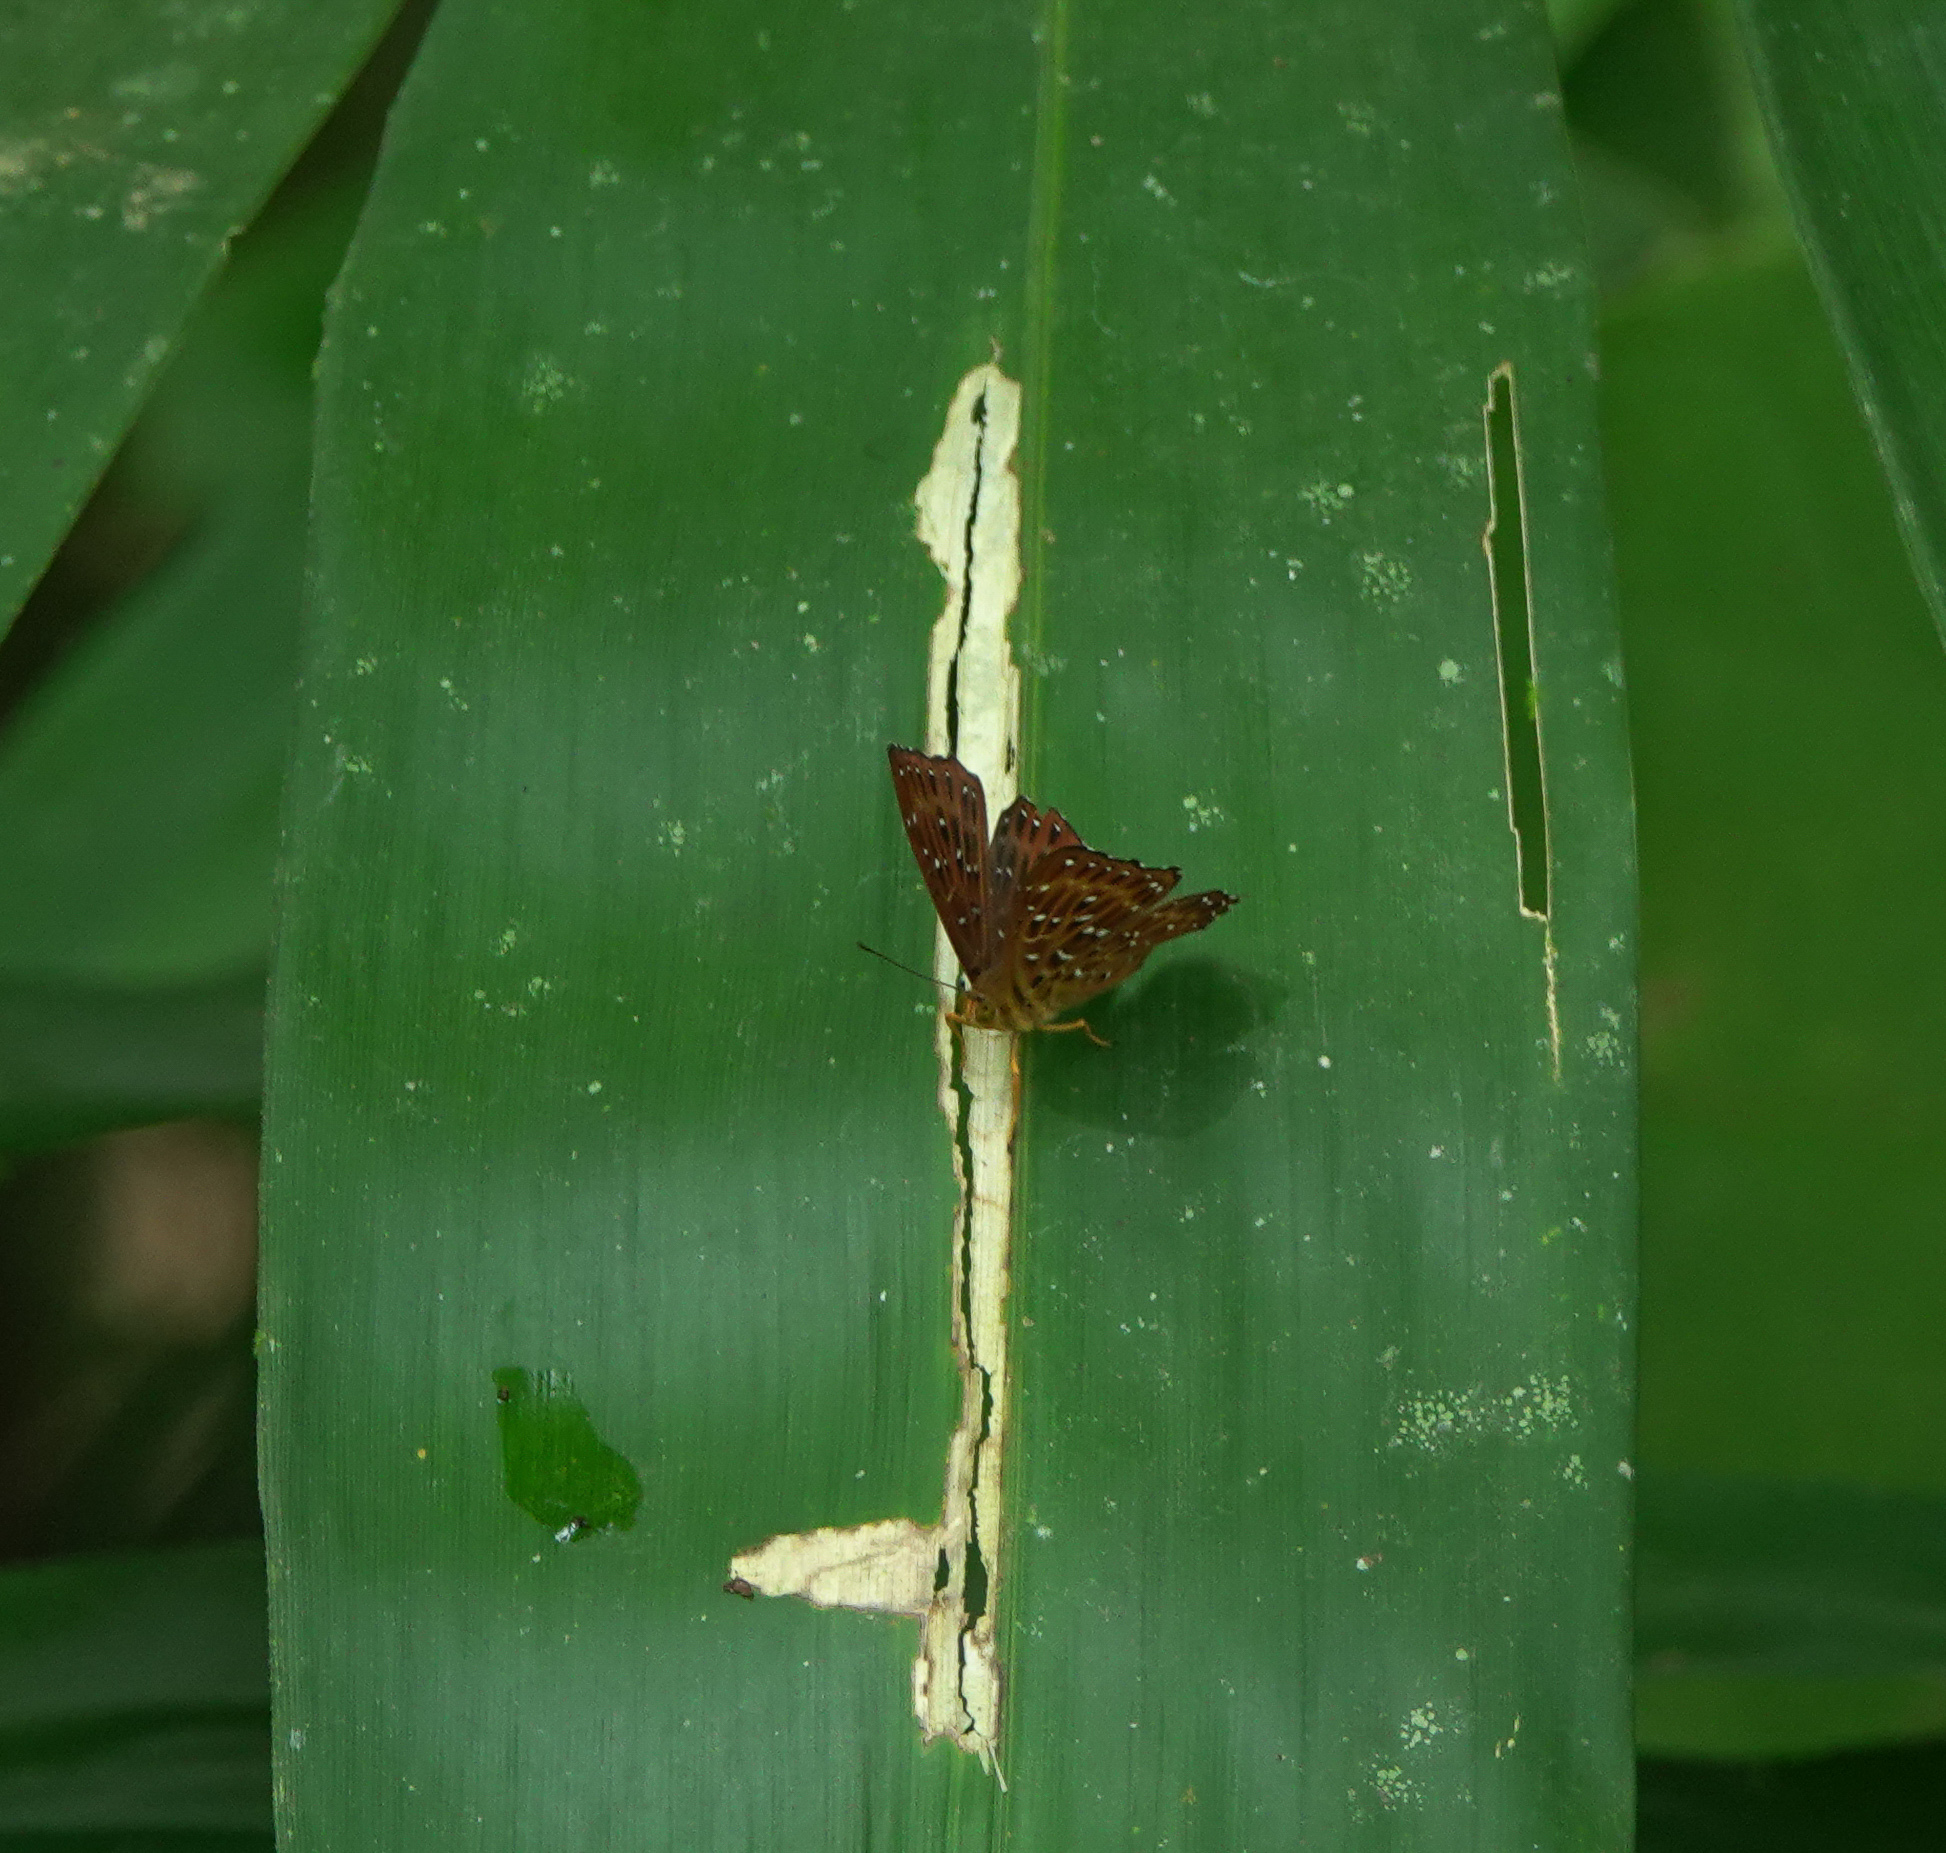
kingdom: Animalia
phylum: Arthropoda
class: Insecta
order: Lepidoptera
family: Riodinidae
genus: Zemeros
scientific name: Zemeros flegyas
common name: Punchinello
